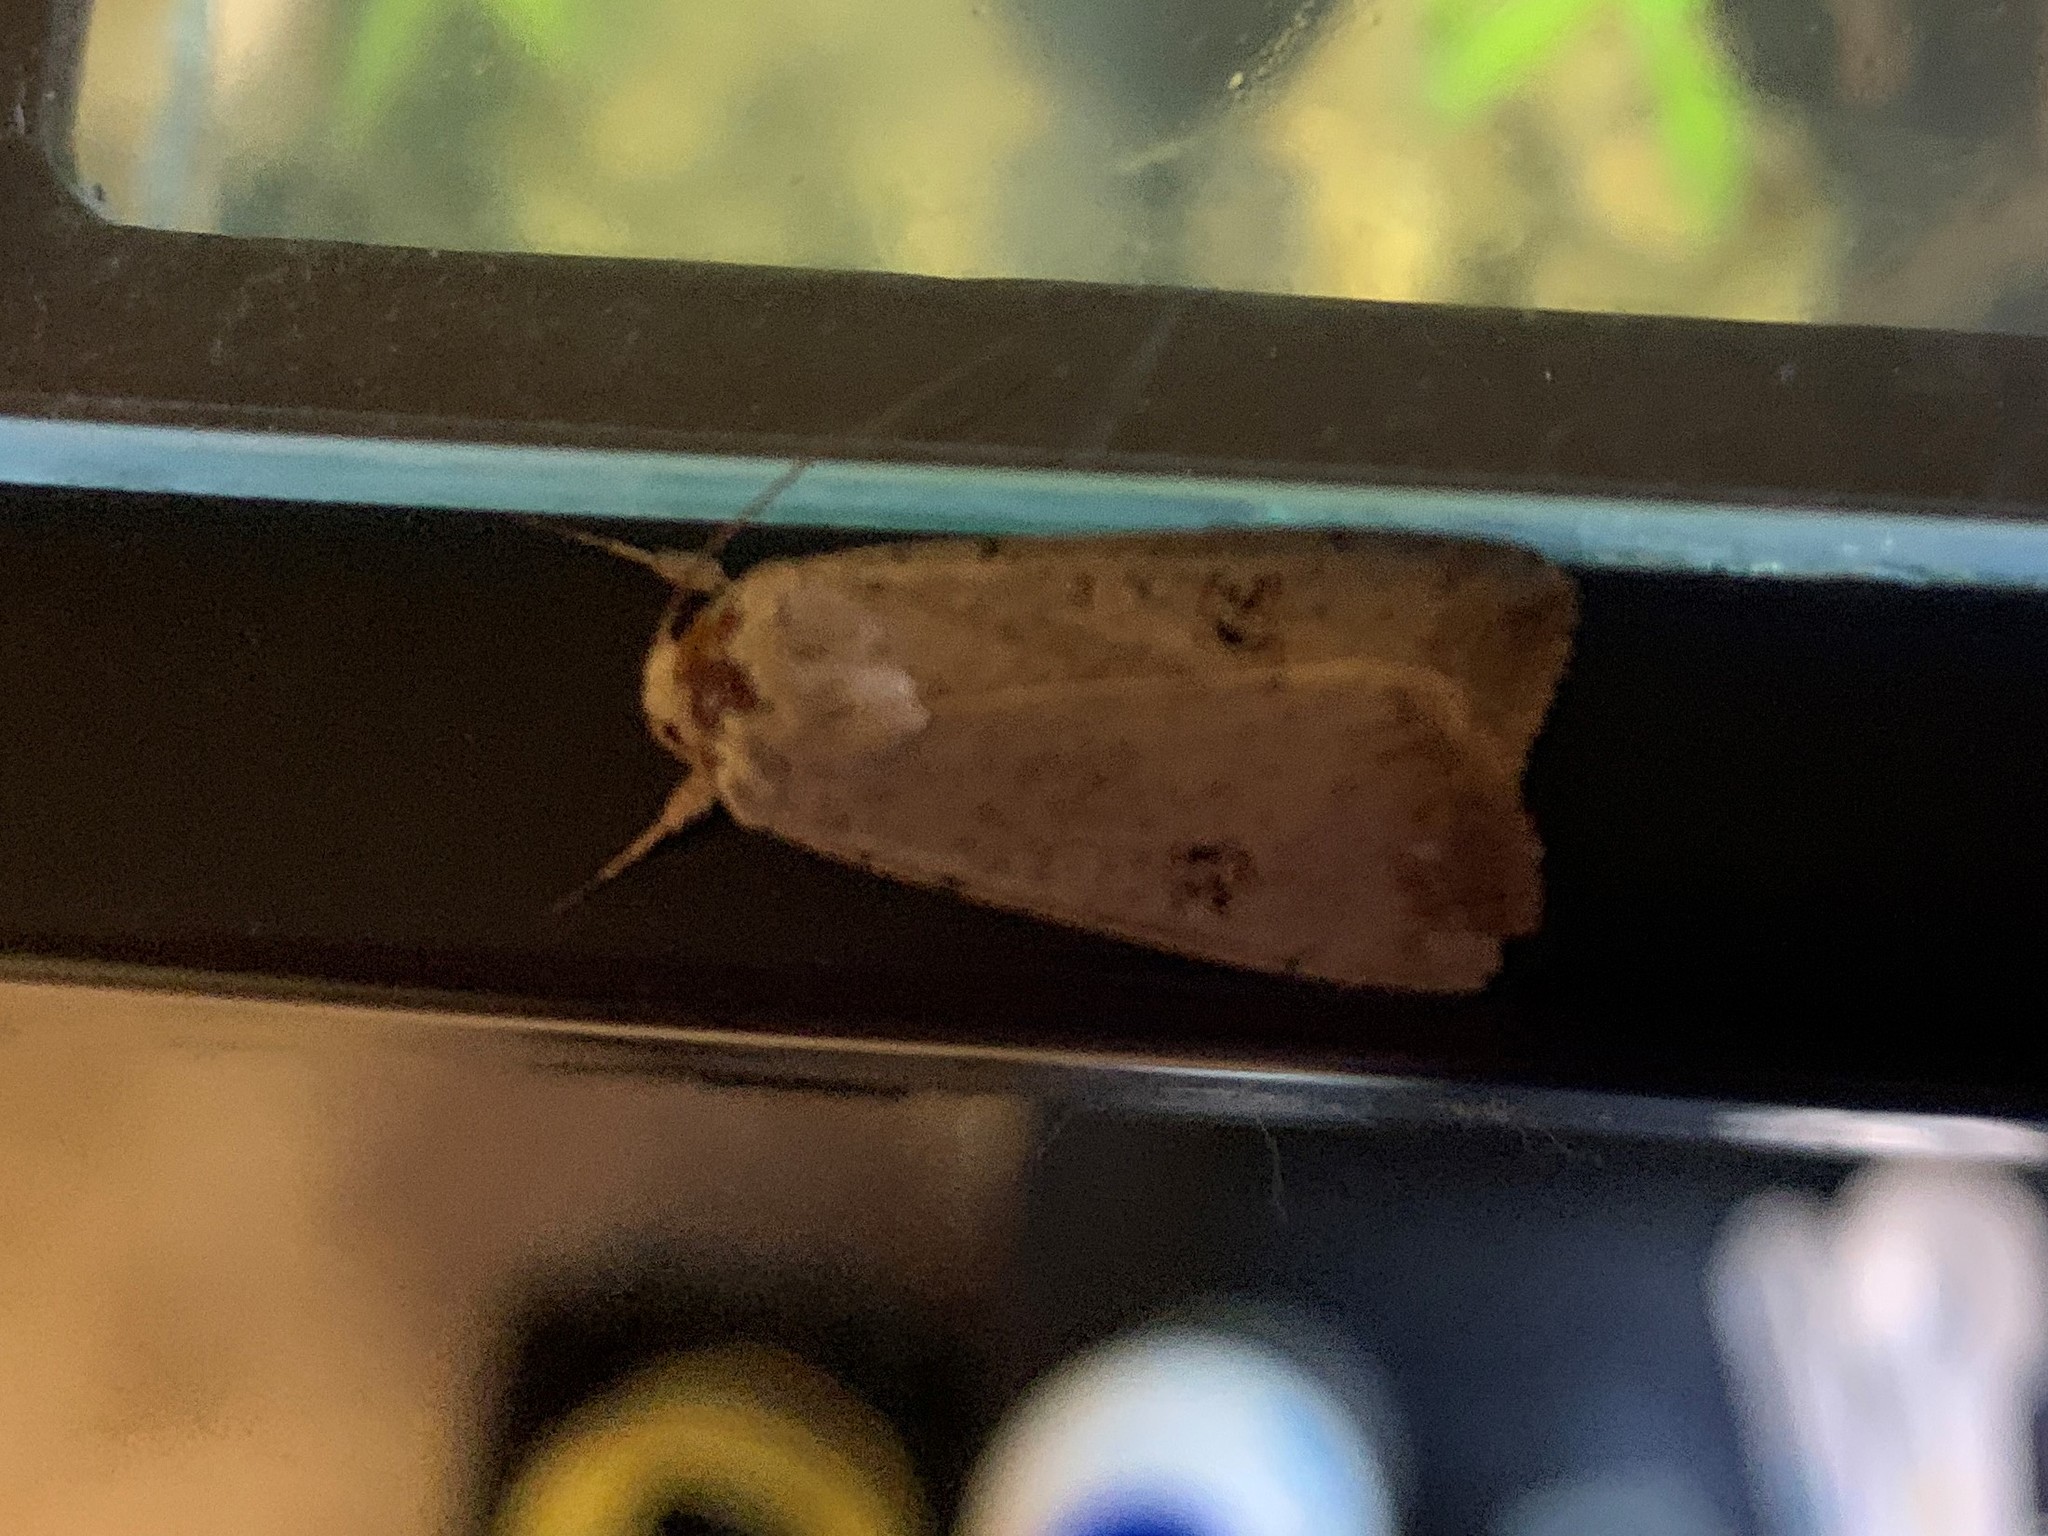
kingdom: Animalia
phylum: Arthropoda
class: Insecta
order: Lepidoptera
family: Noctuidae
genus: Anicla
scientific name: Anicla infecta
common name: Green cutworm
